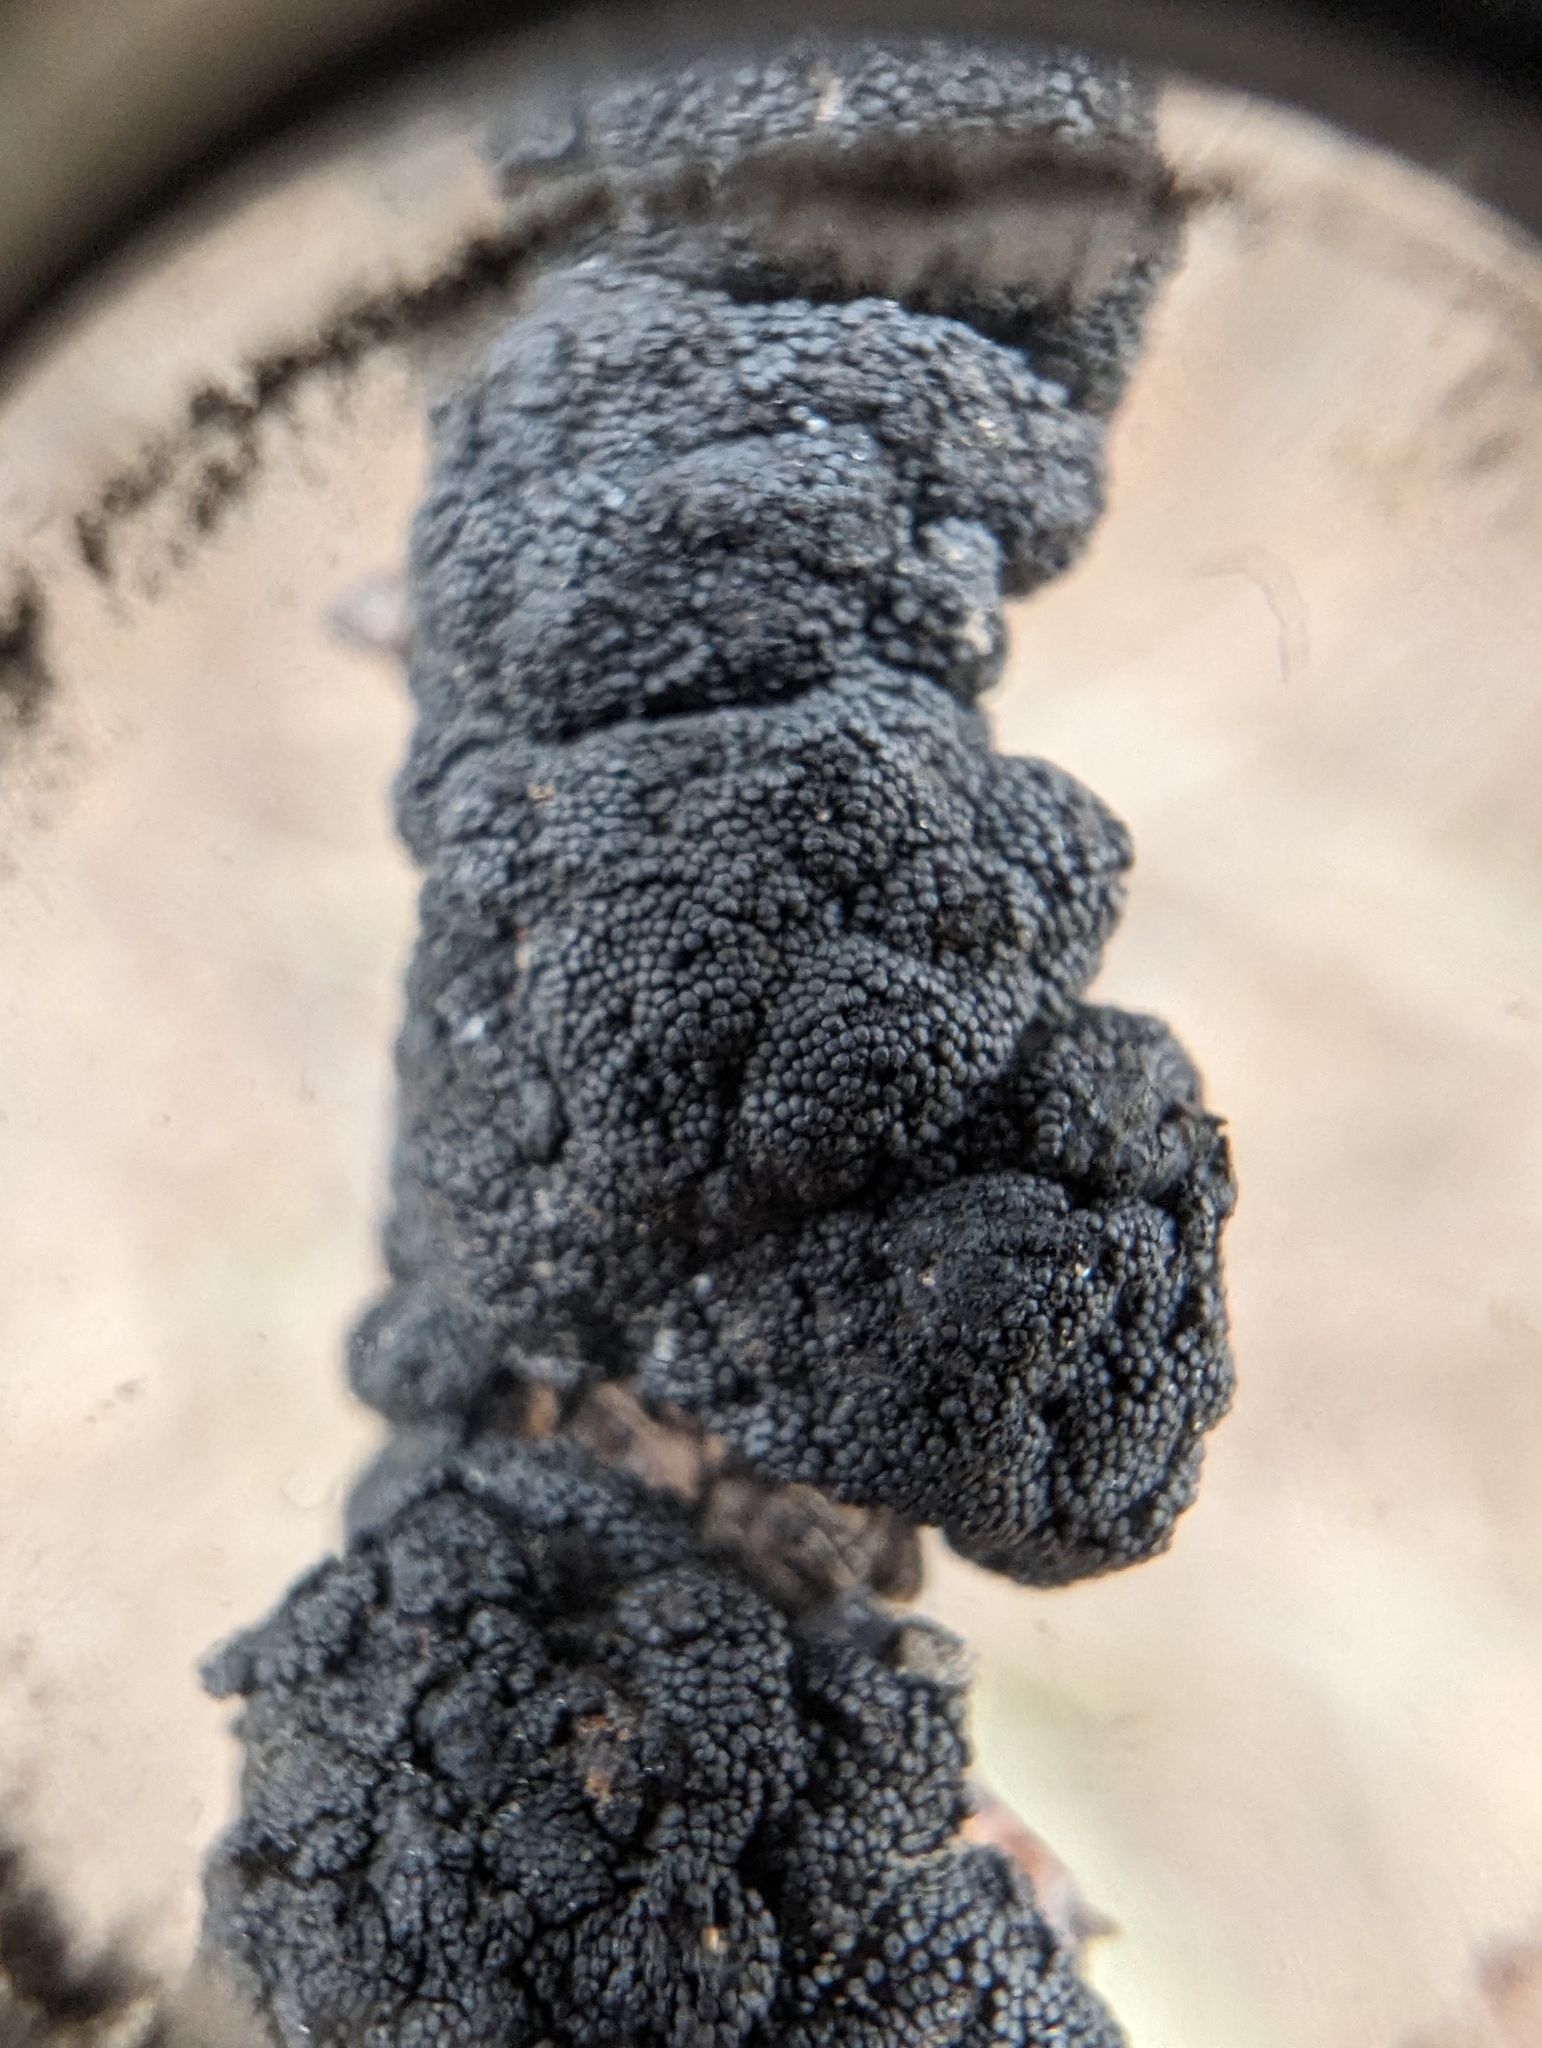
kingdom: Fungi
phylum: Ascomycota
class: Dothideomycetes
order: Venturiales
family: Venturiaceae
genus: Apiosporina
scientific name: Apiosporina morbosa
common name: Black knot
